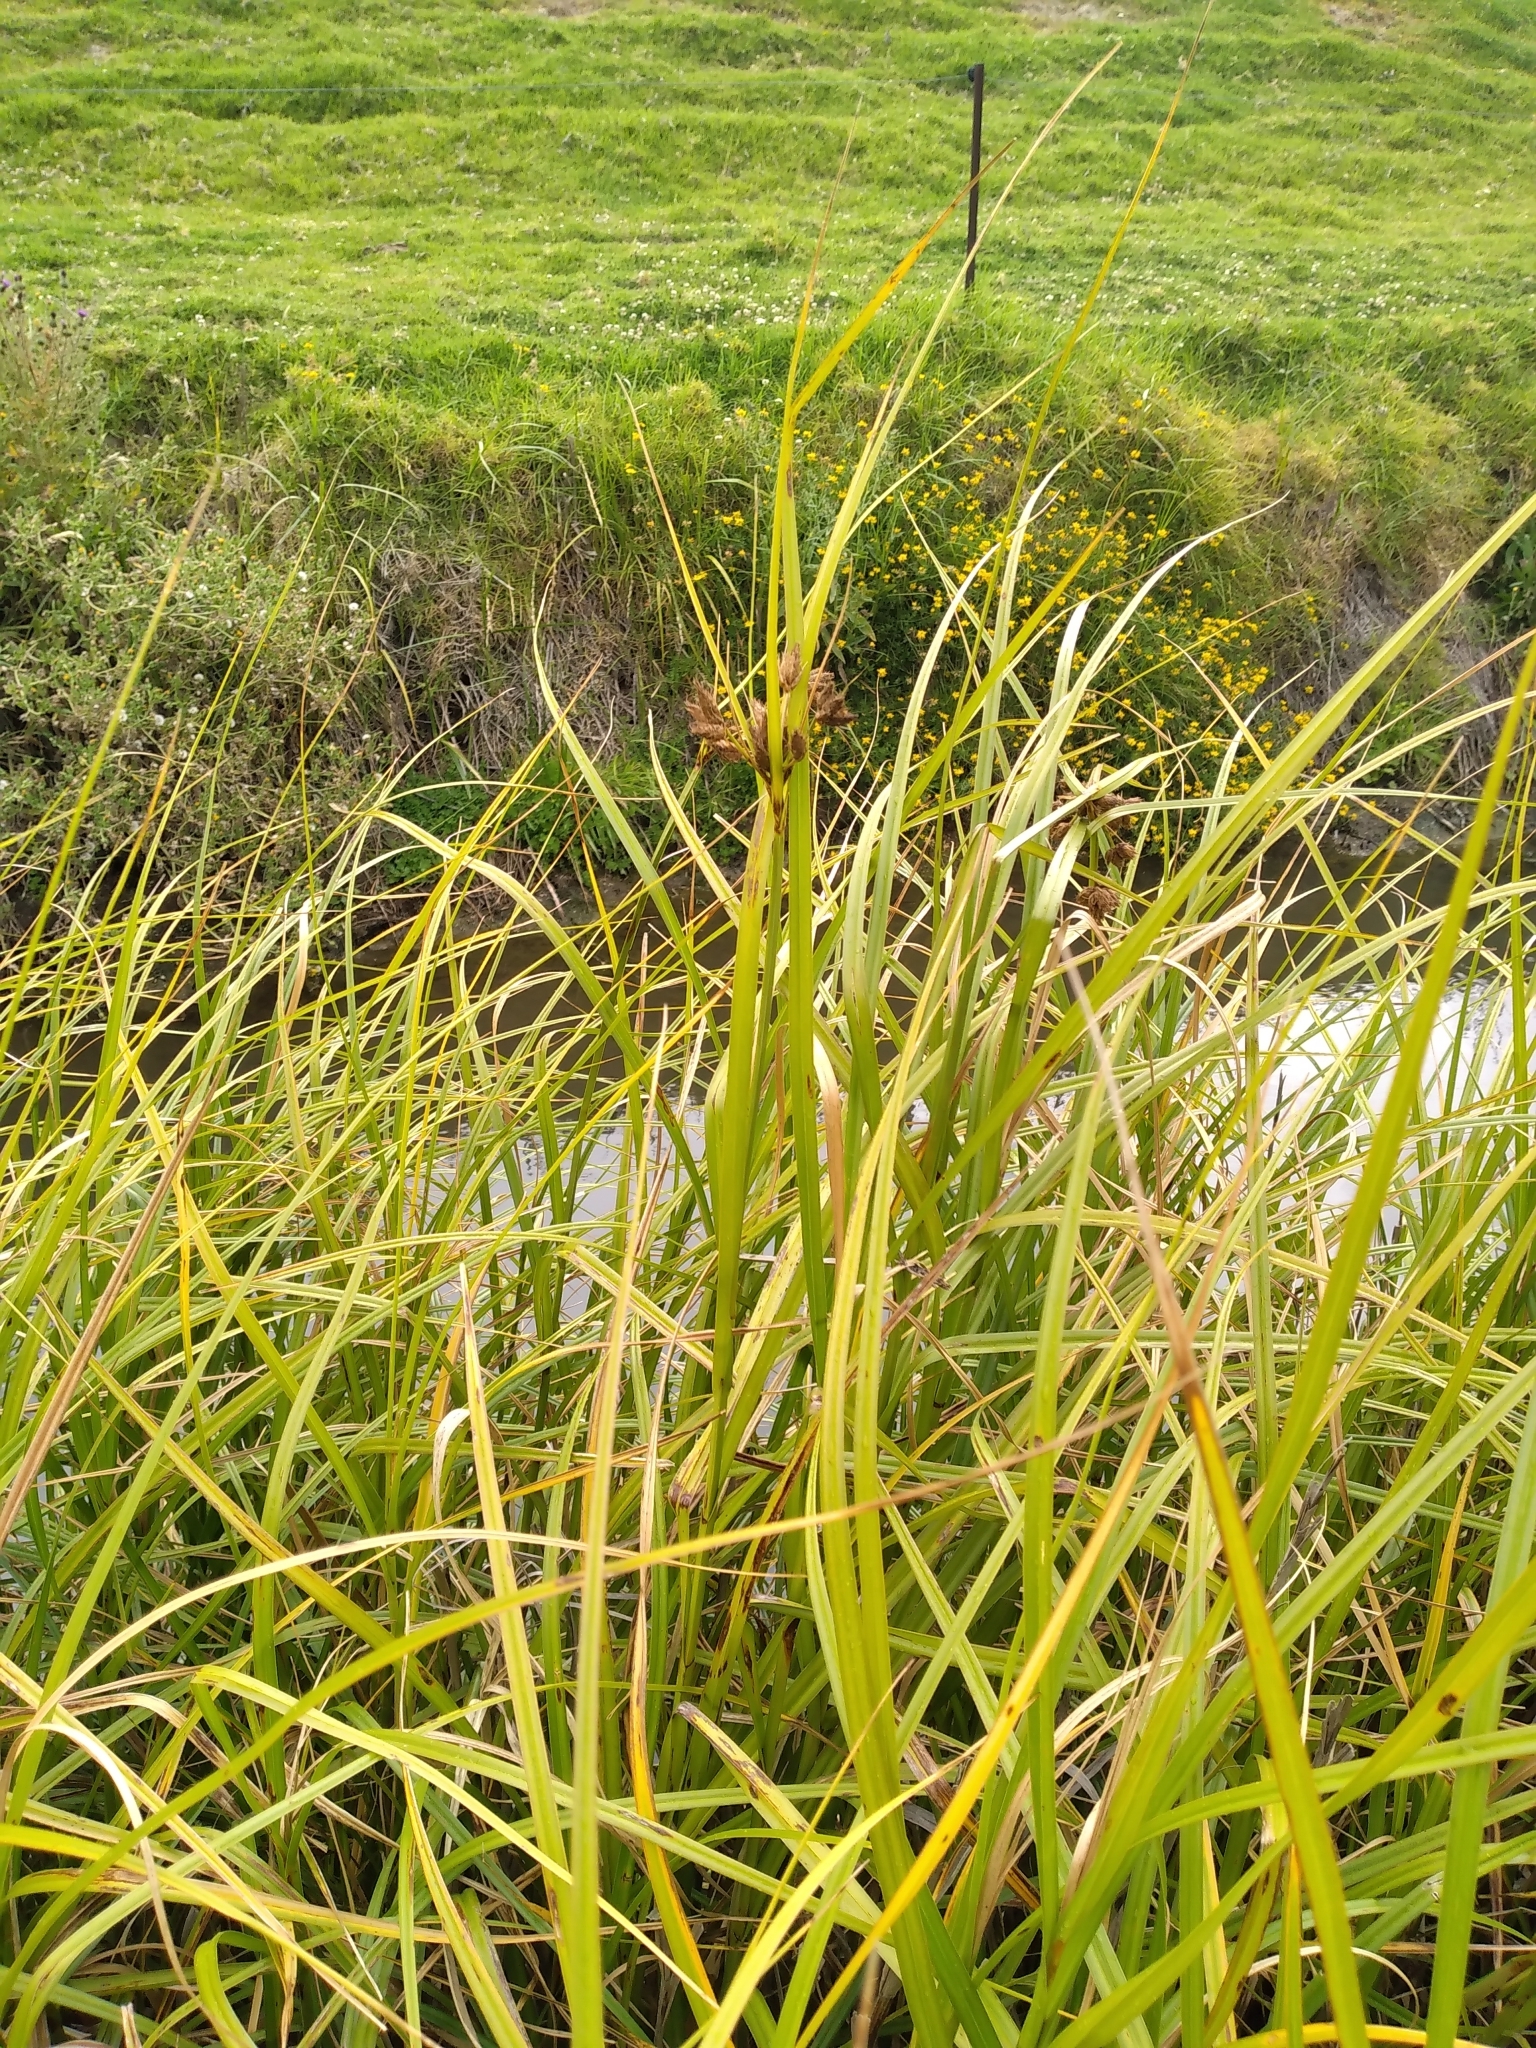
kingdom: Plantae
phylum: Tracheophyta
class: Liliopsida
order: Poales
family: Cyperaceae
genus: Bolboschoenus
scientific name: Bolboschoenus medianus
